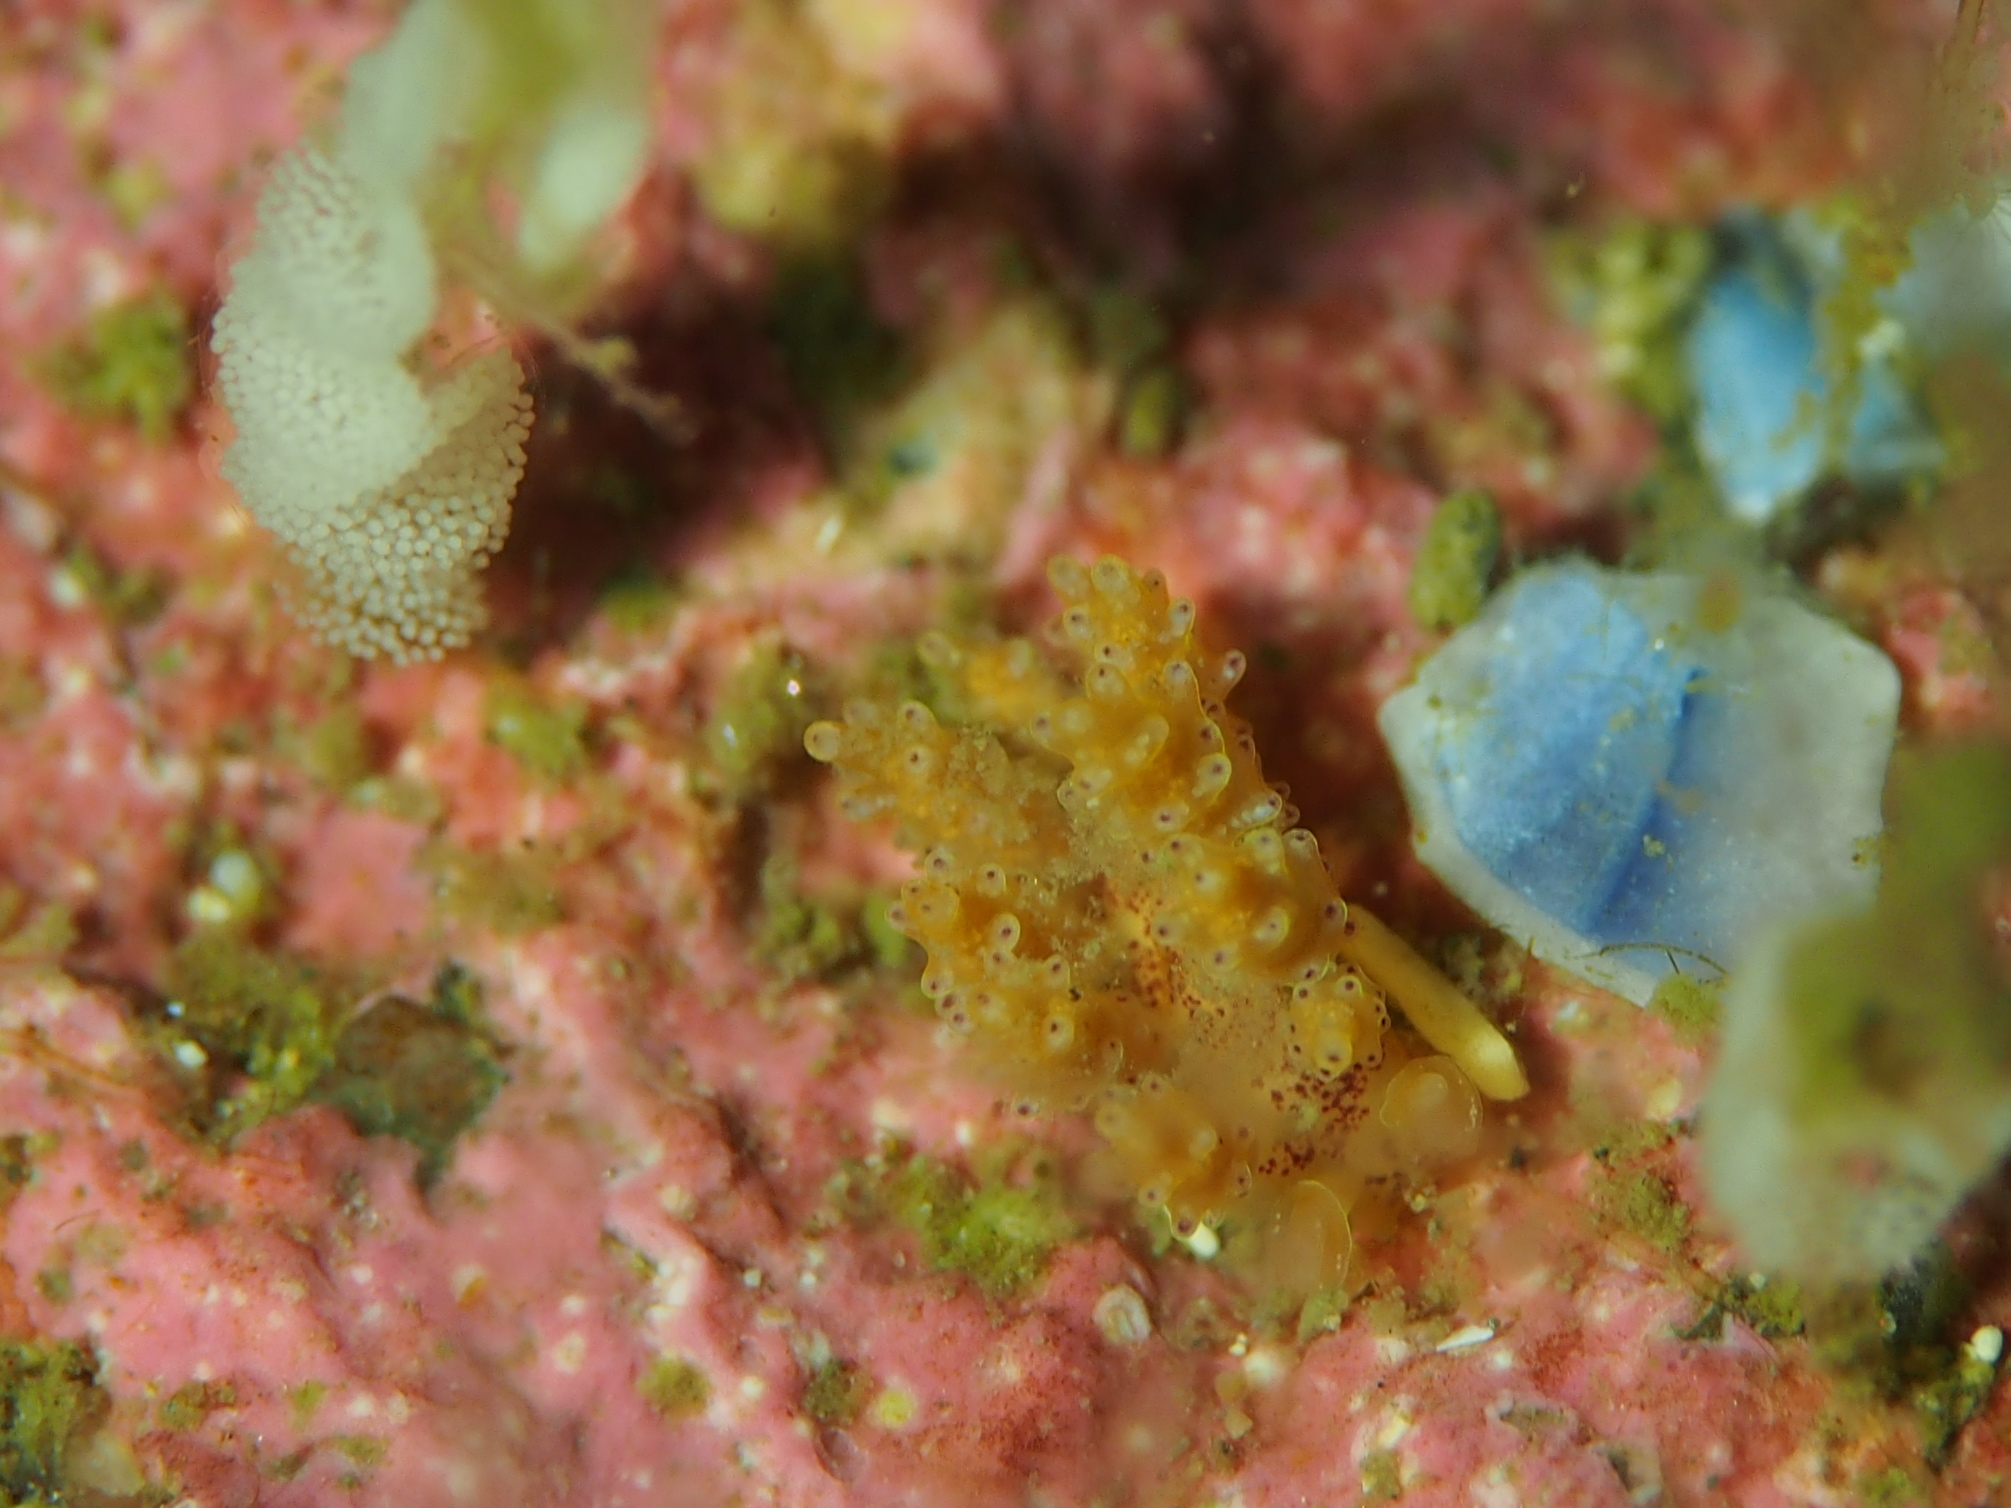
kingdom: Animalia
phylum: Mollusca
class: Gastropoda
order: Nudibranchia
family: Dotidae
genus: Doto
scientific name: Doto dunnei
